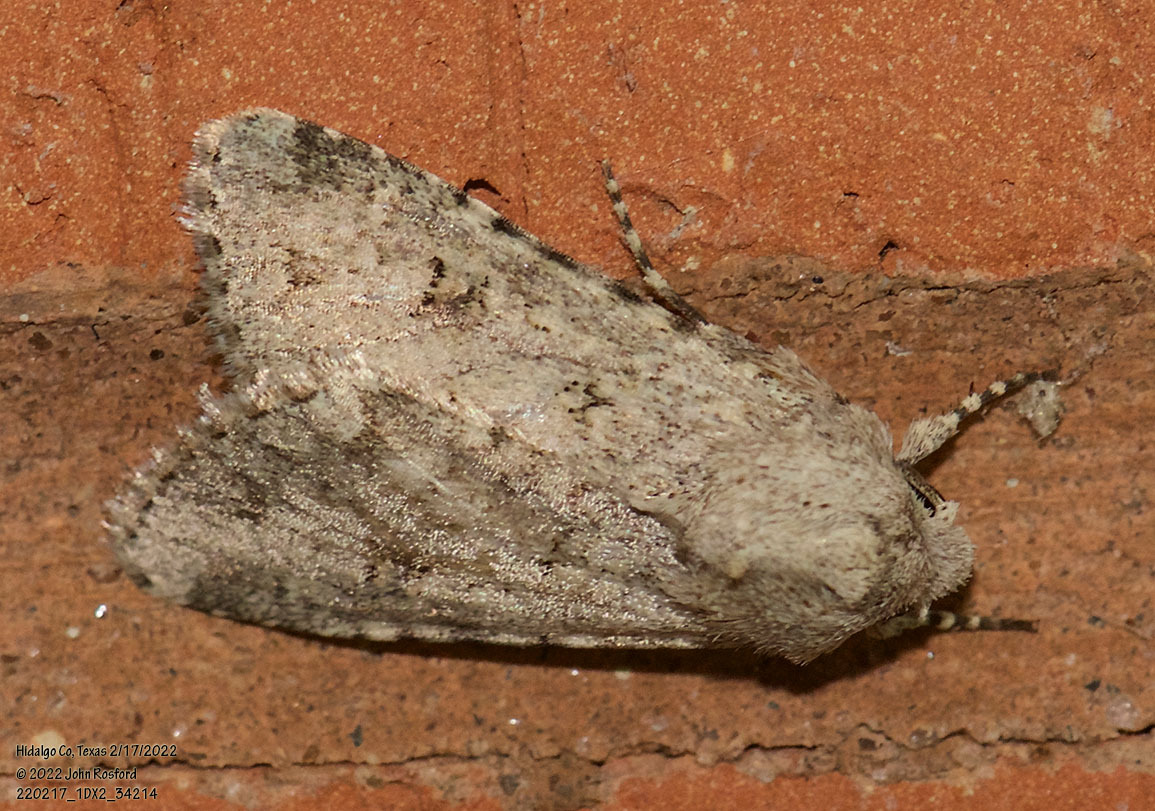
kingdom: Animalia
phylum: Arthropoda
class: Insecta
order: Lepidoptera
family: Noctuidae
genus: Peridroma
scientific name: Peridroma saucia
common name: Pearly underwing
